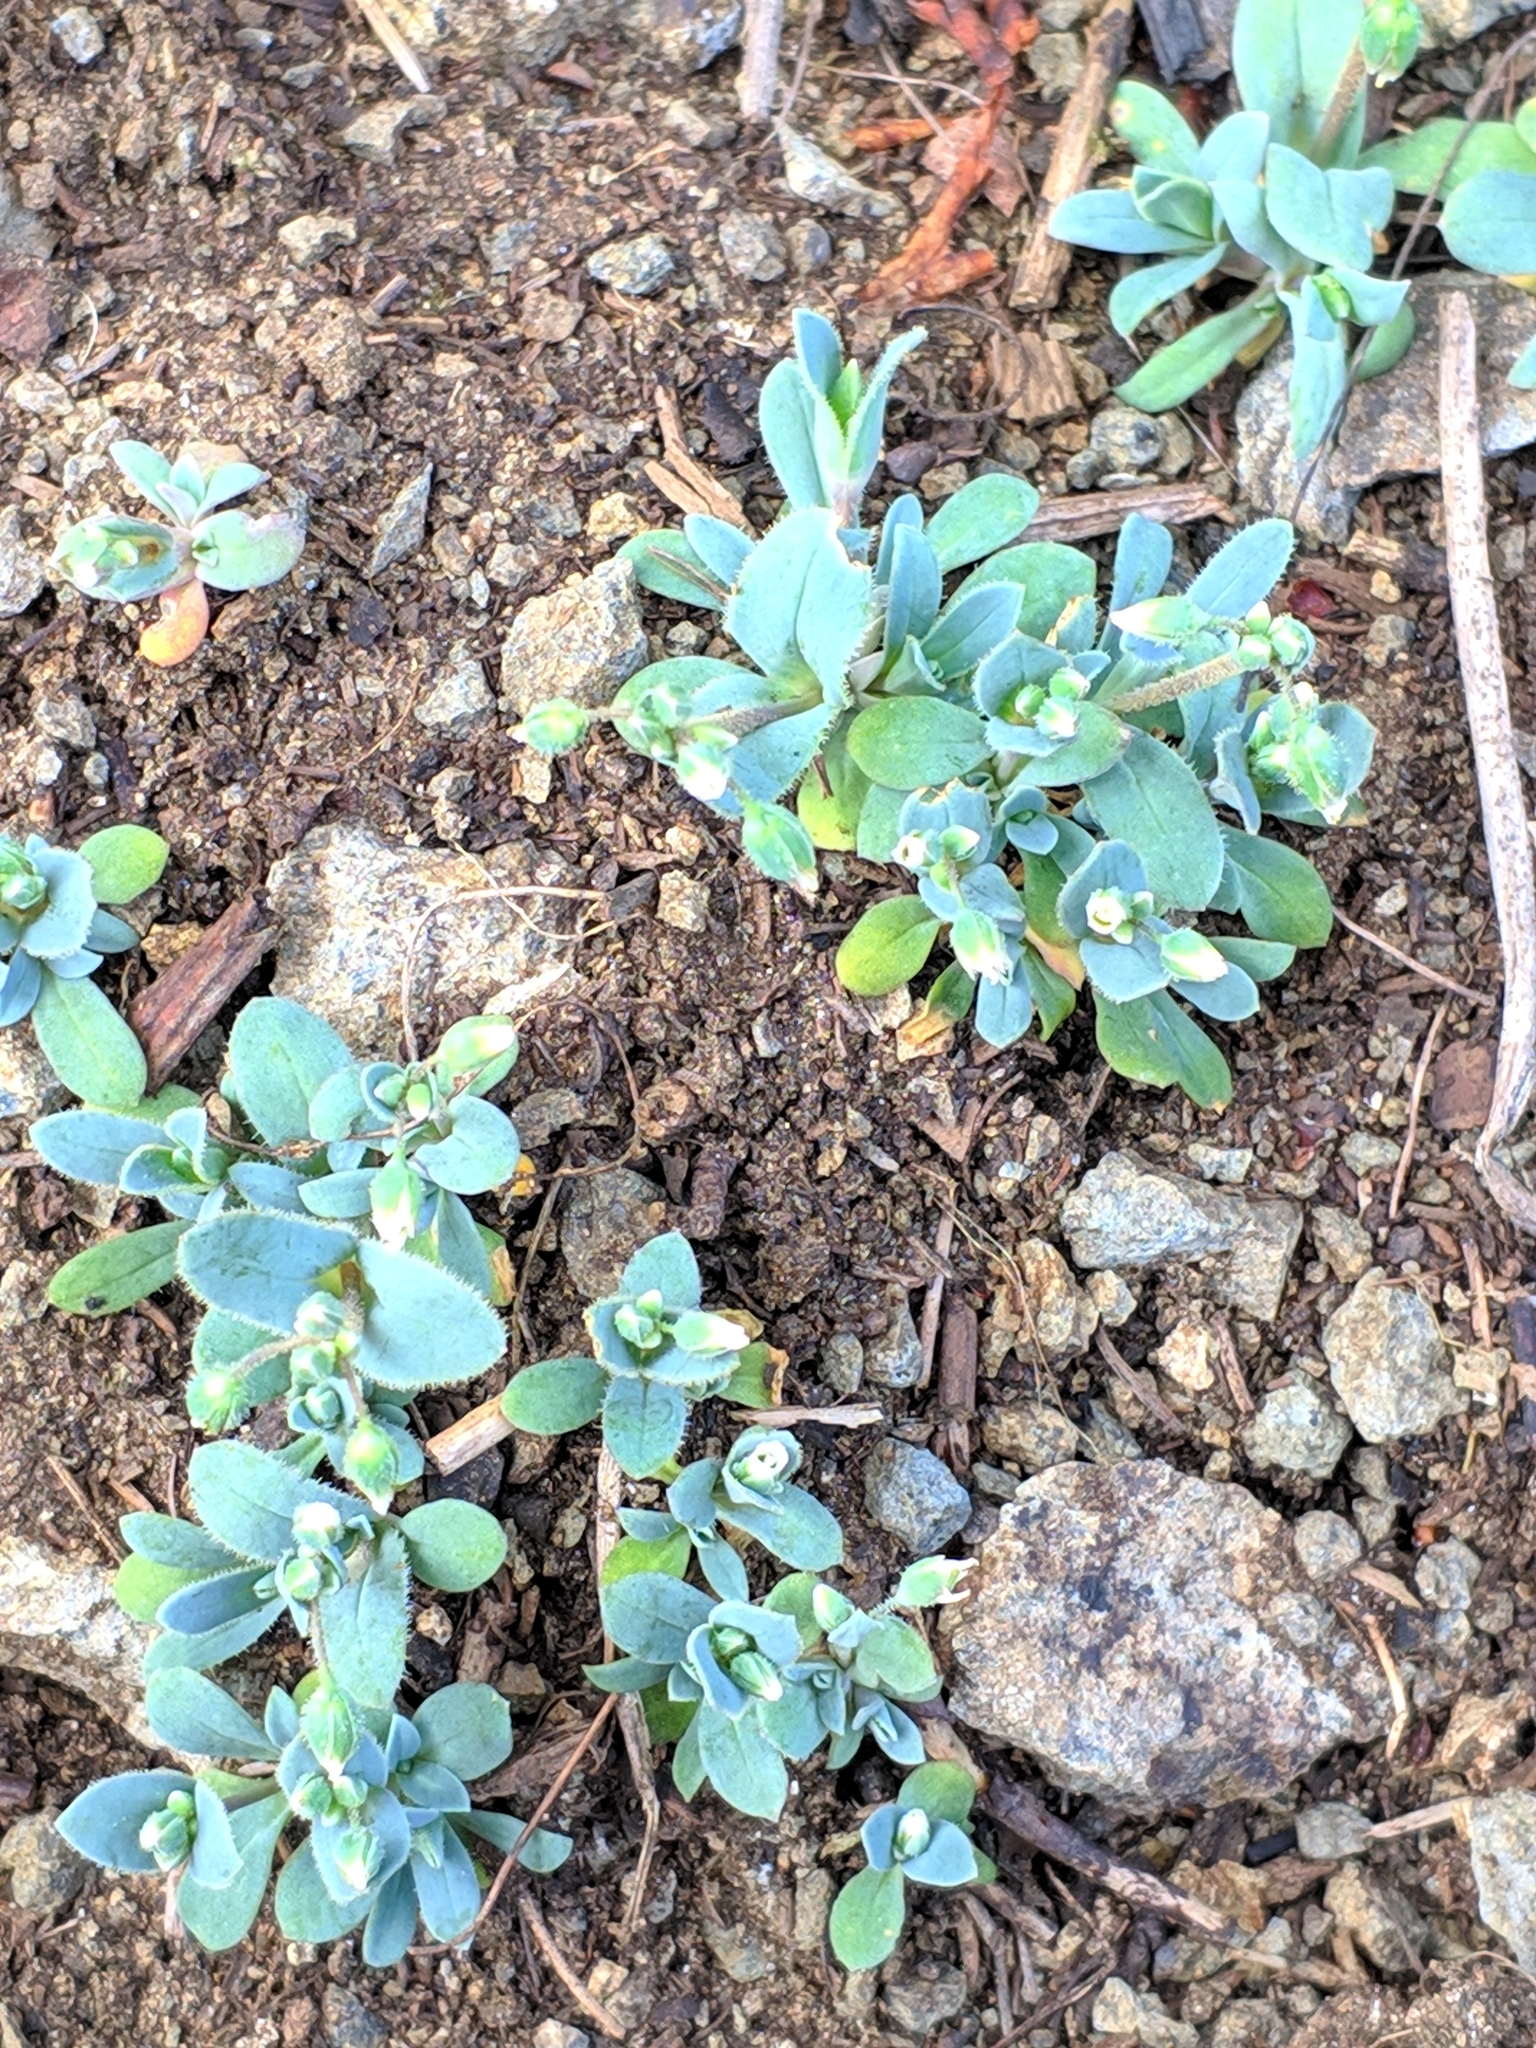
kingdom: Plantae
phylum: Tracheophyta
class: Magnoliopsida
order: Caryophyllales
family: Caryophyllaceae
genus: Holosteum
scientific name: Holosteum umbellatum
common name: Jagged chickweed
